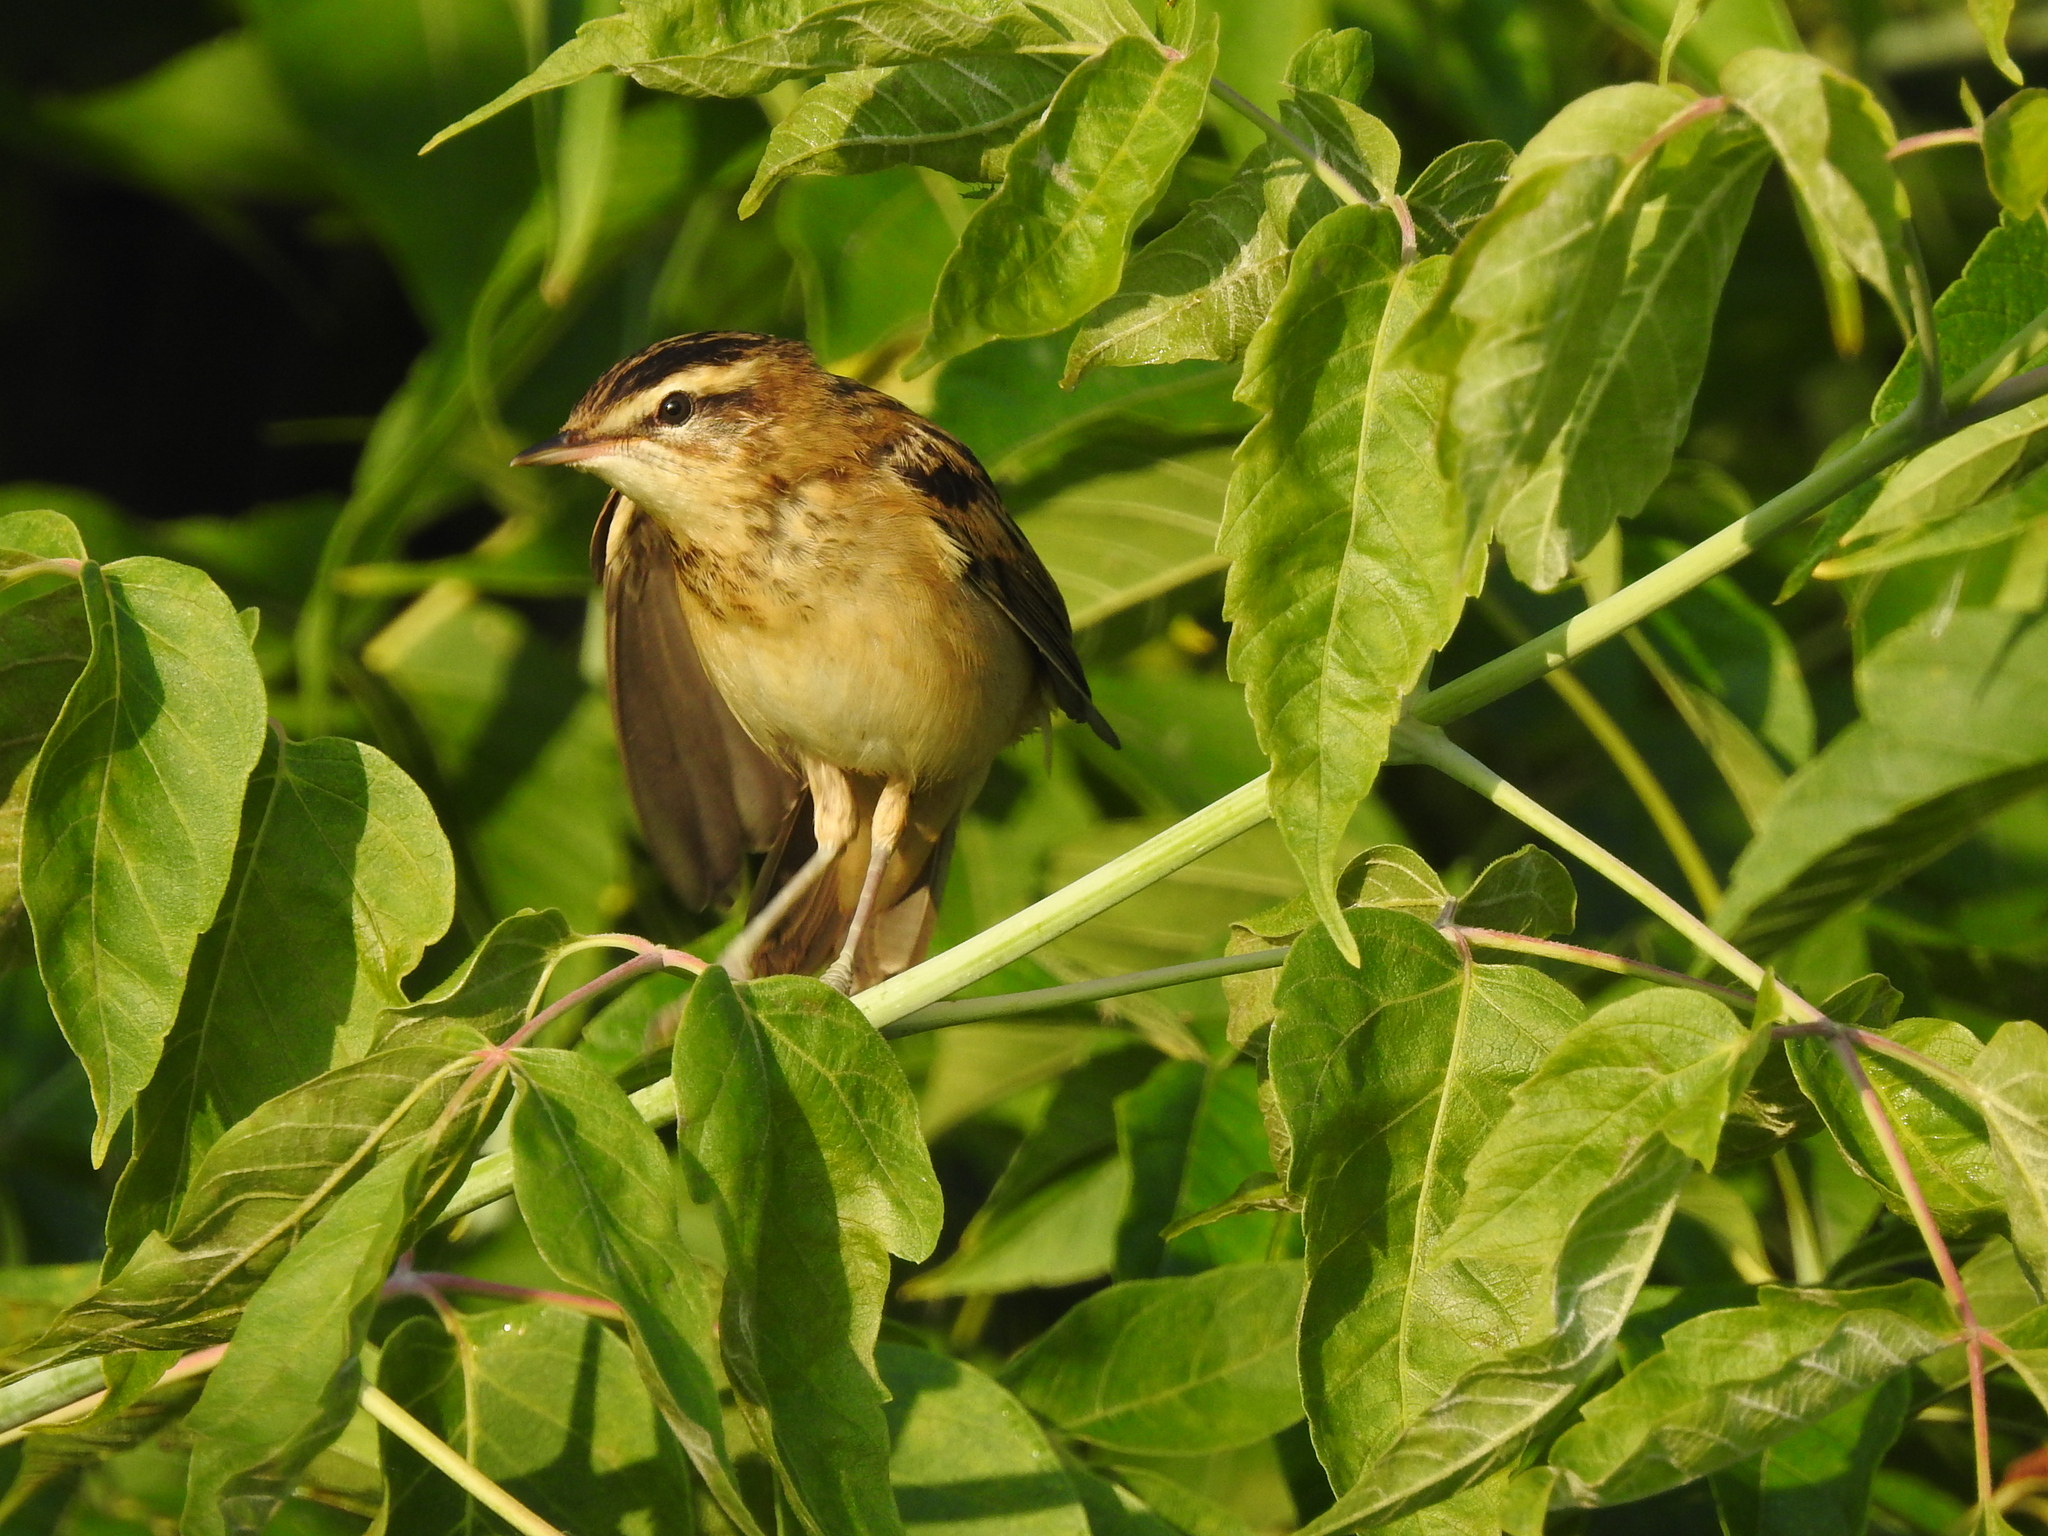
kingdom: Animalia
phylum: Chordata
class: Aves
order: Passeriformes
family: Acrocephalidae
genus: Acrocephalus
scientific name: Acrocephalus schoenobaenus
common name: Sedge warbler
